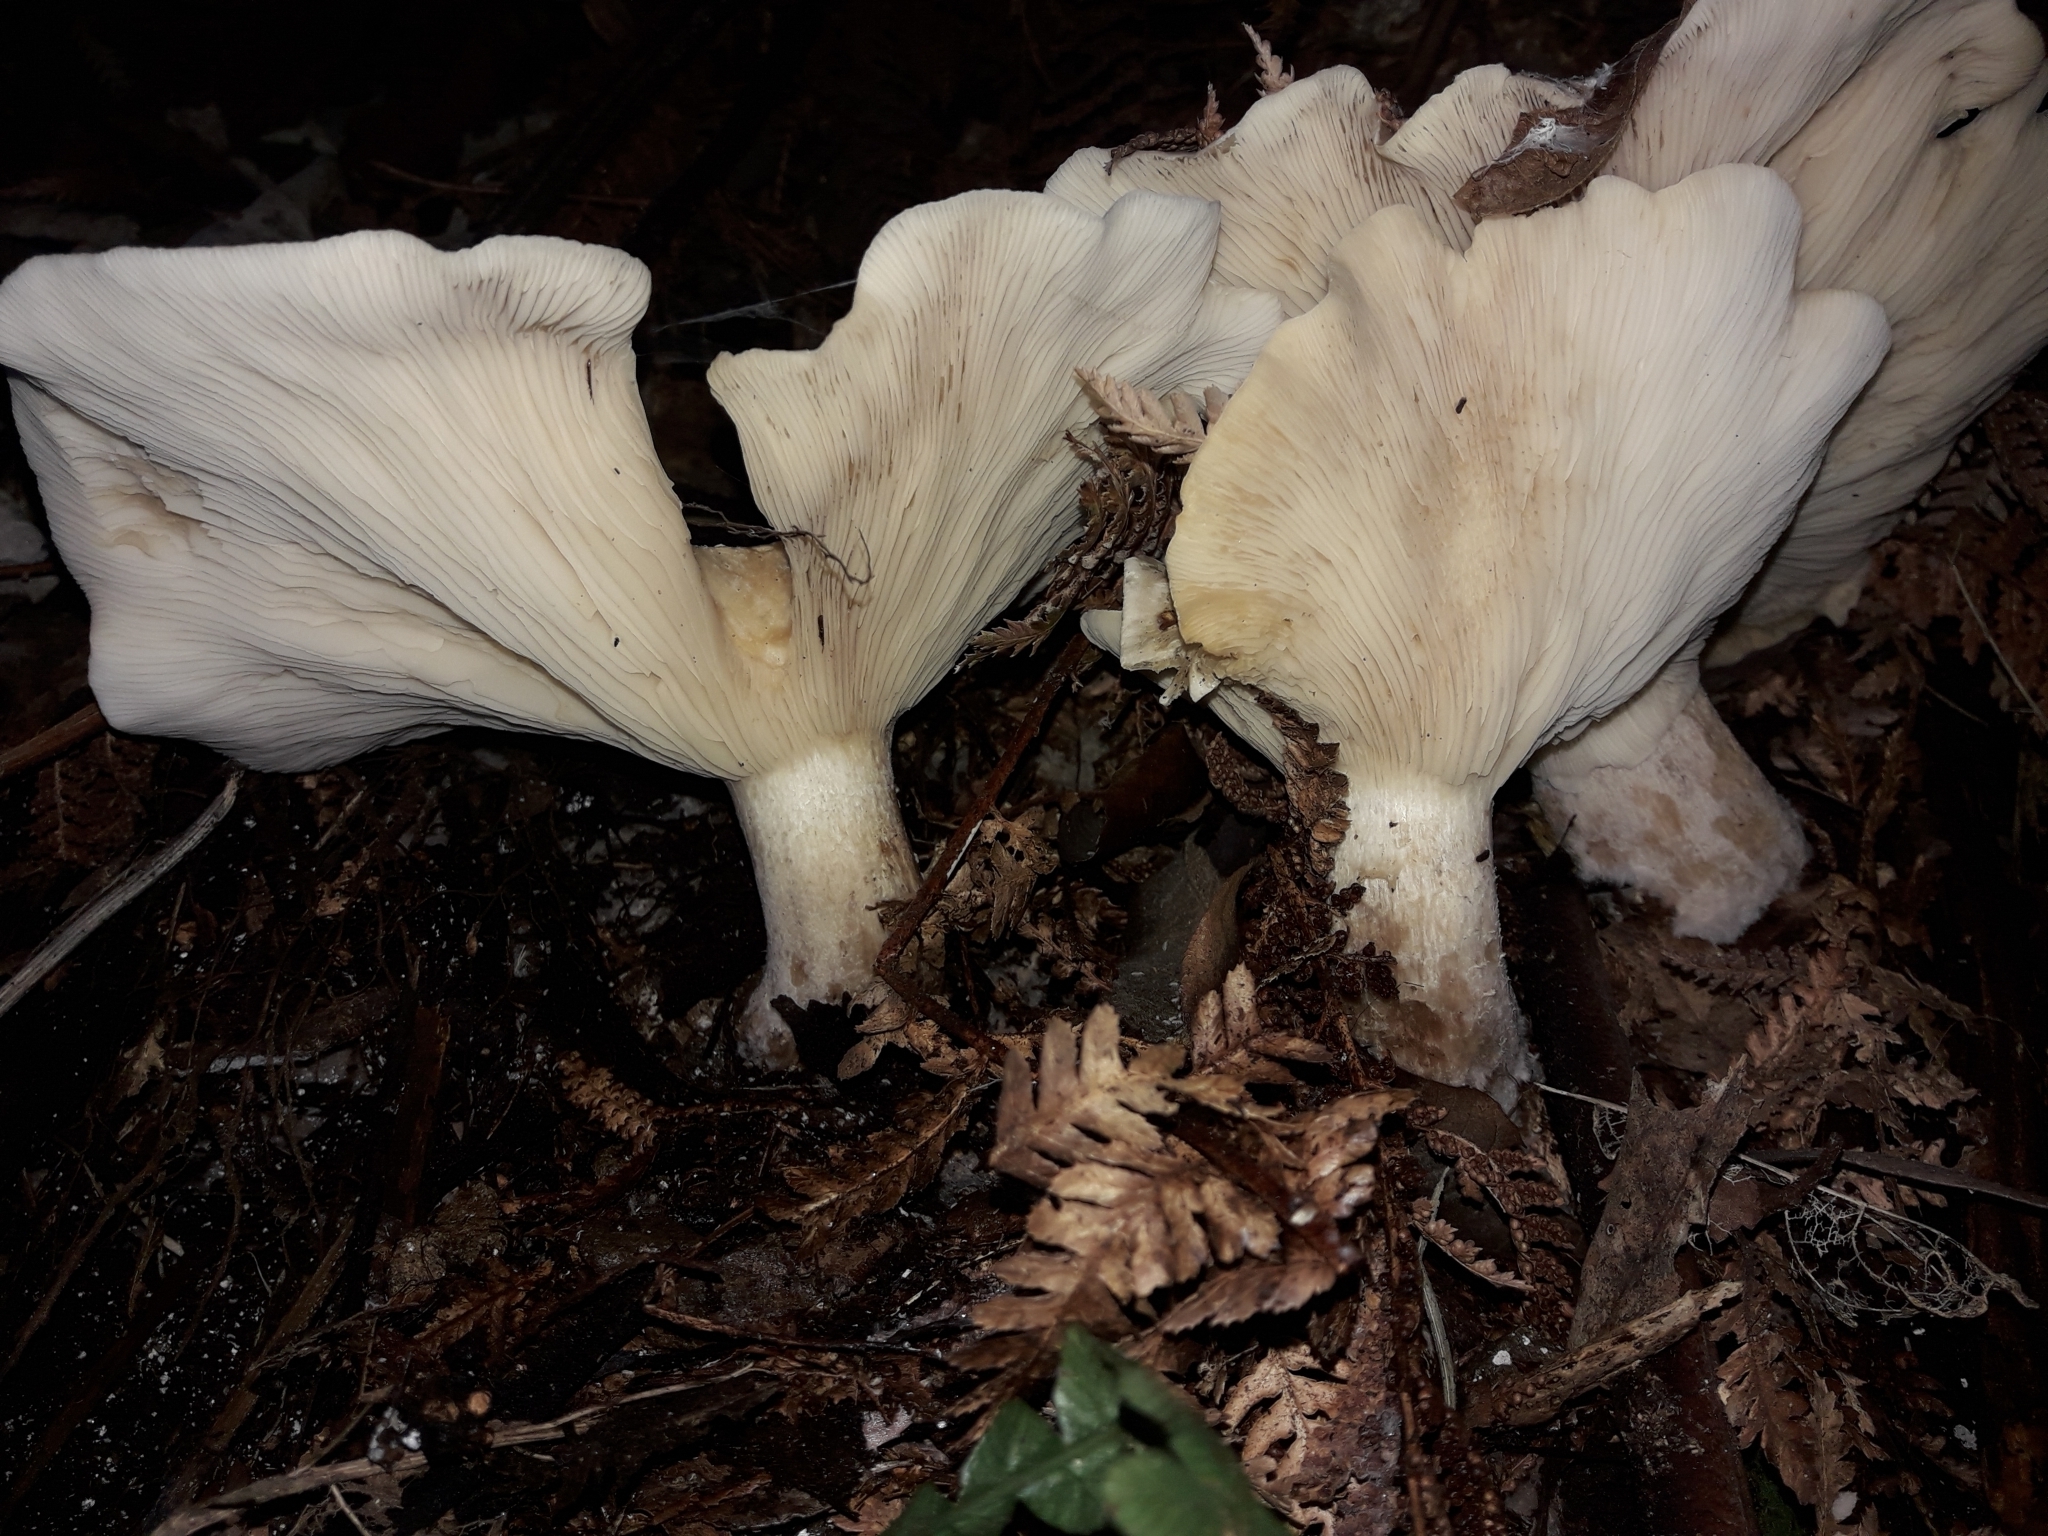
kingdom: Fungi
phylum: Basidiomycota
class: Agaricomycetes
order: Agaricales
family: Tricholomataceae
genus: Clitocybe
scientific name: Clitocybe nebularis
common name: Clouded agaric
